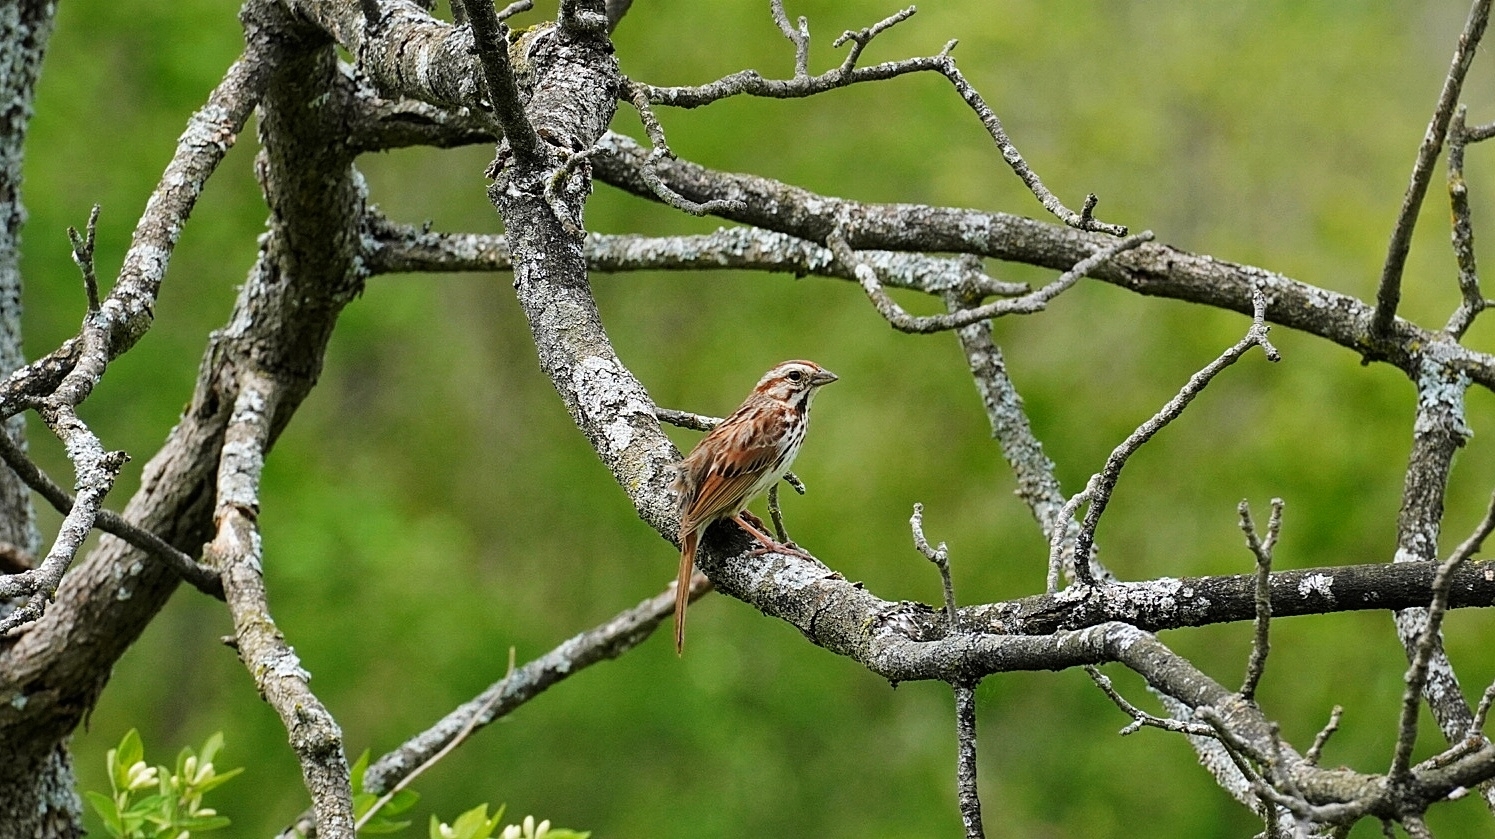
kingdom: Animalia
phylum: Chordata
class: Aves
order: Passeriformes
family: Passerellidae
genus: Melospiza
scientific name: Melospiza melodia
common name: Song sparrow
